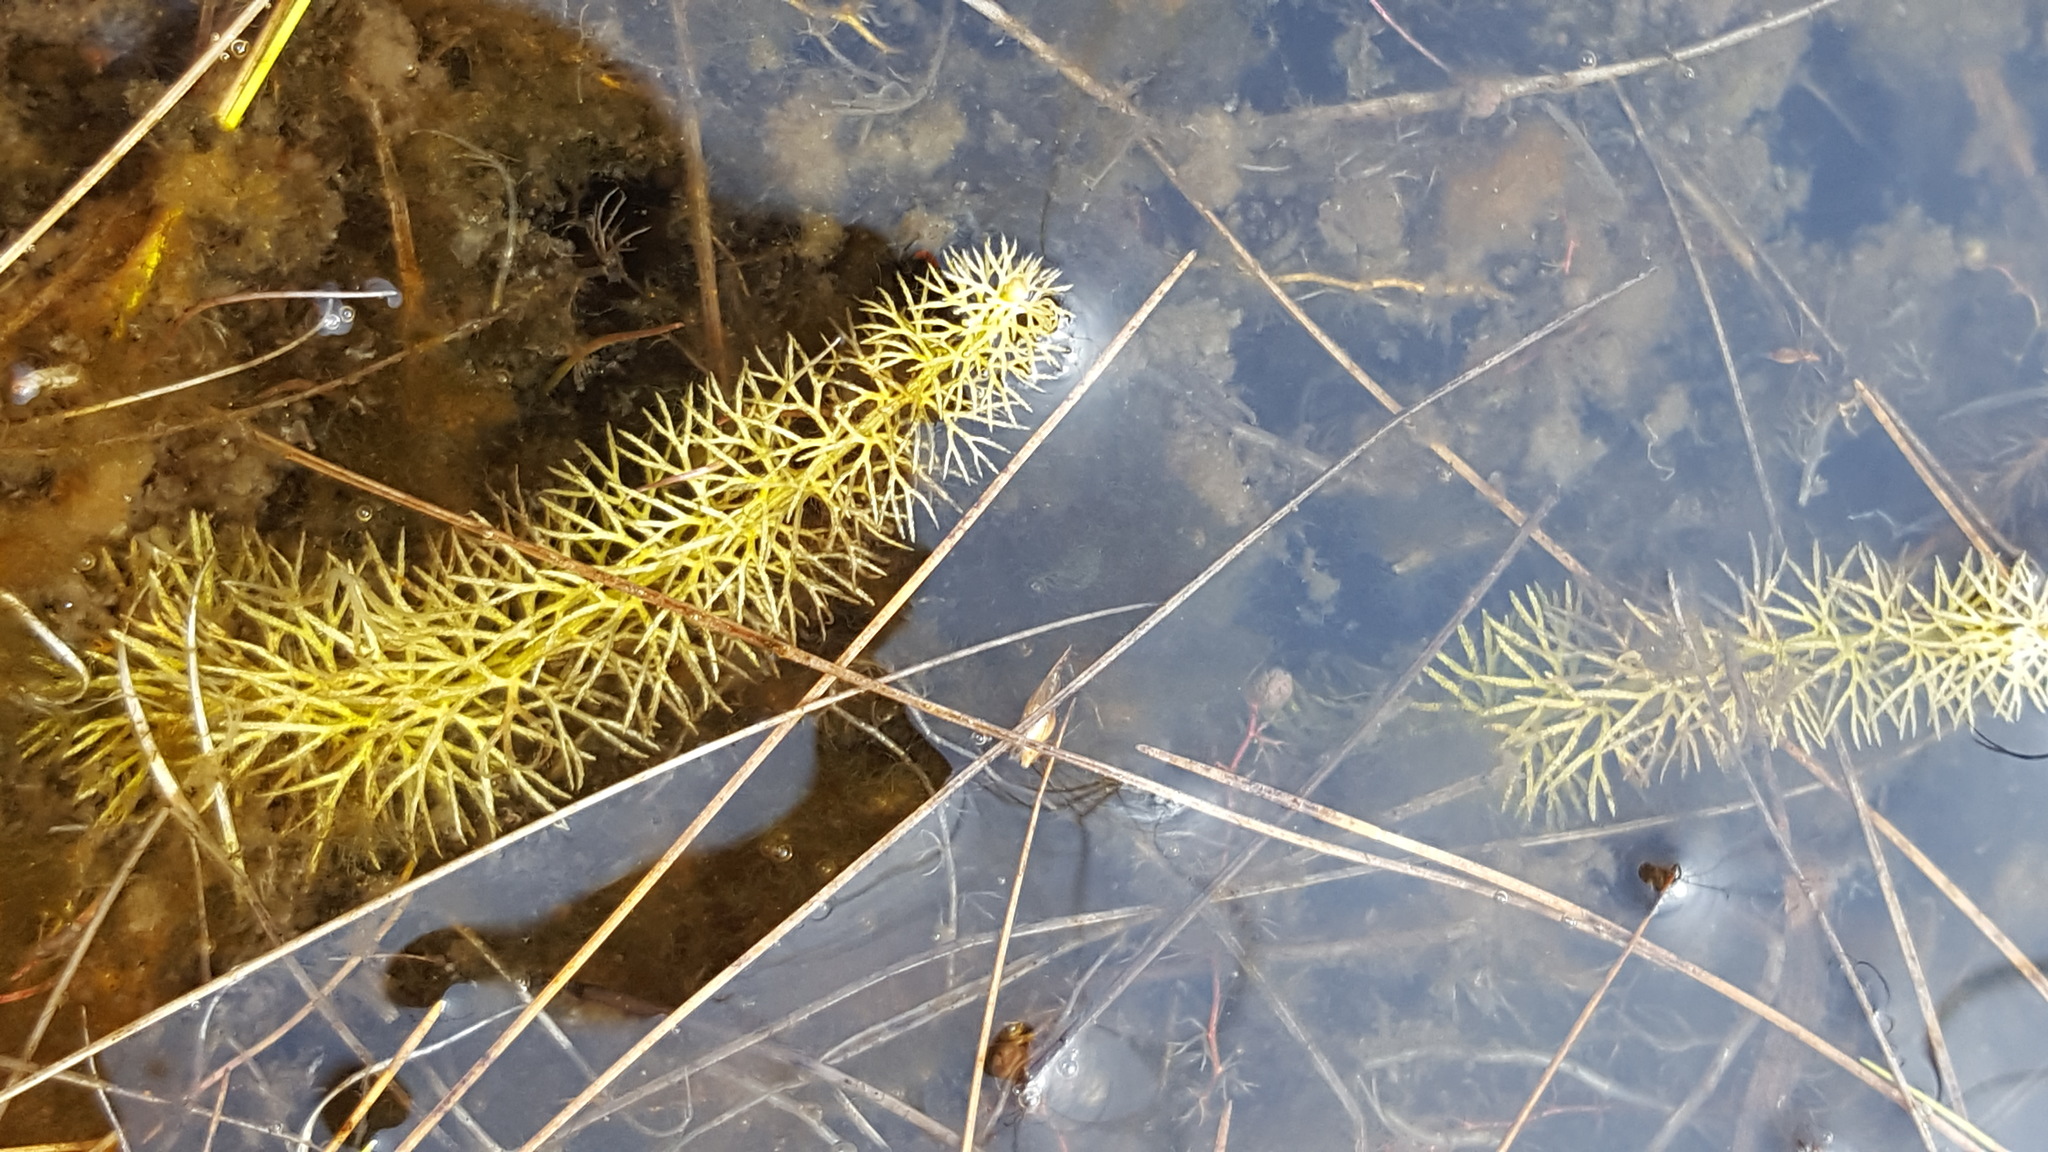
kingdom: Plantae
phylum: Tracheophyta
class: Magnoliopsida
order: Lamiales
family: Lentibulariaceae
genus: Utricularia
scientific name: Utricularia intermedia
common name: Intermediate bladderwort
